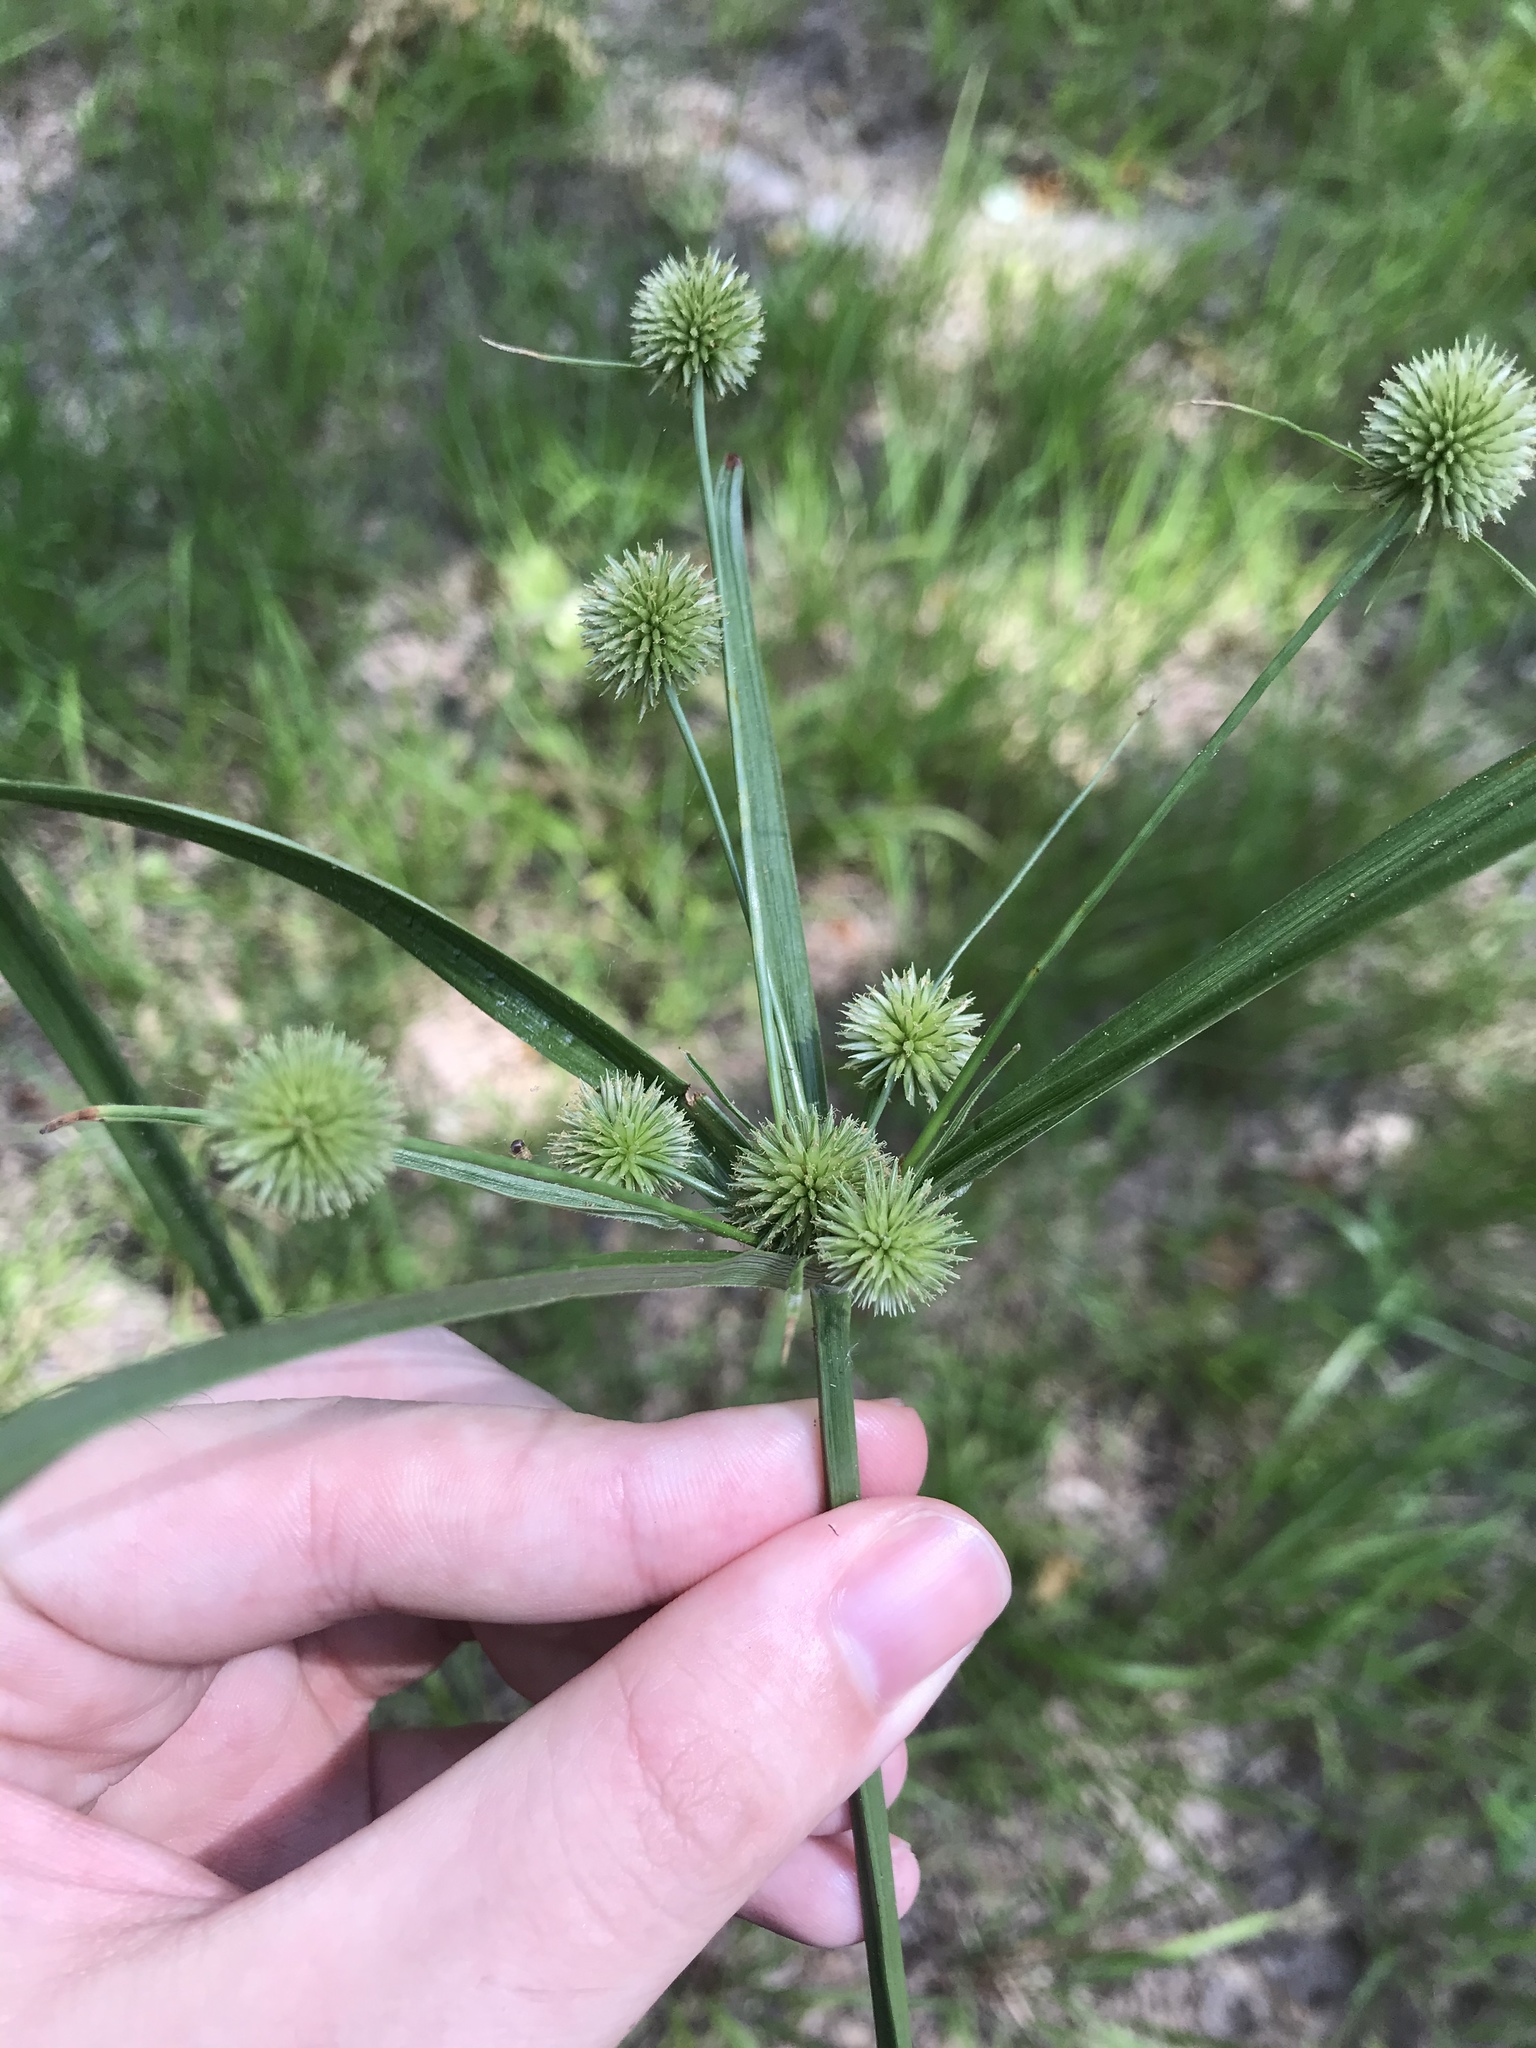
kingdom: Plantae
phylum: Tracheophyta
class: Liliopsida
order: Poales
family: Cyperaceae
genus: Cyperus
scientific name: Cyperus echinatus
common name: Teasel sedge
